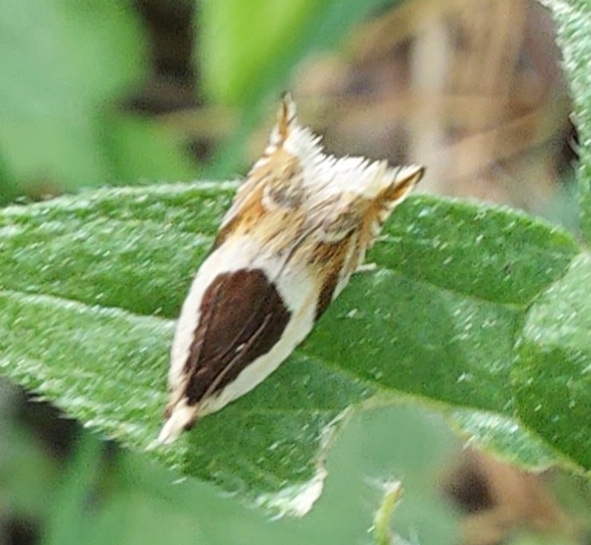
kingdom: Animalia
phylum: Arthropoda
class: Insecta
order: Lepidoptera
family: Tortricidae
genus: Ancylis
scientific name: Ancylis badiana
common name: Common roller
